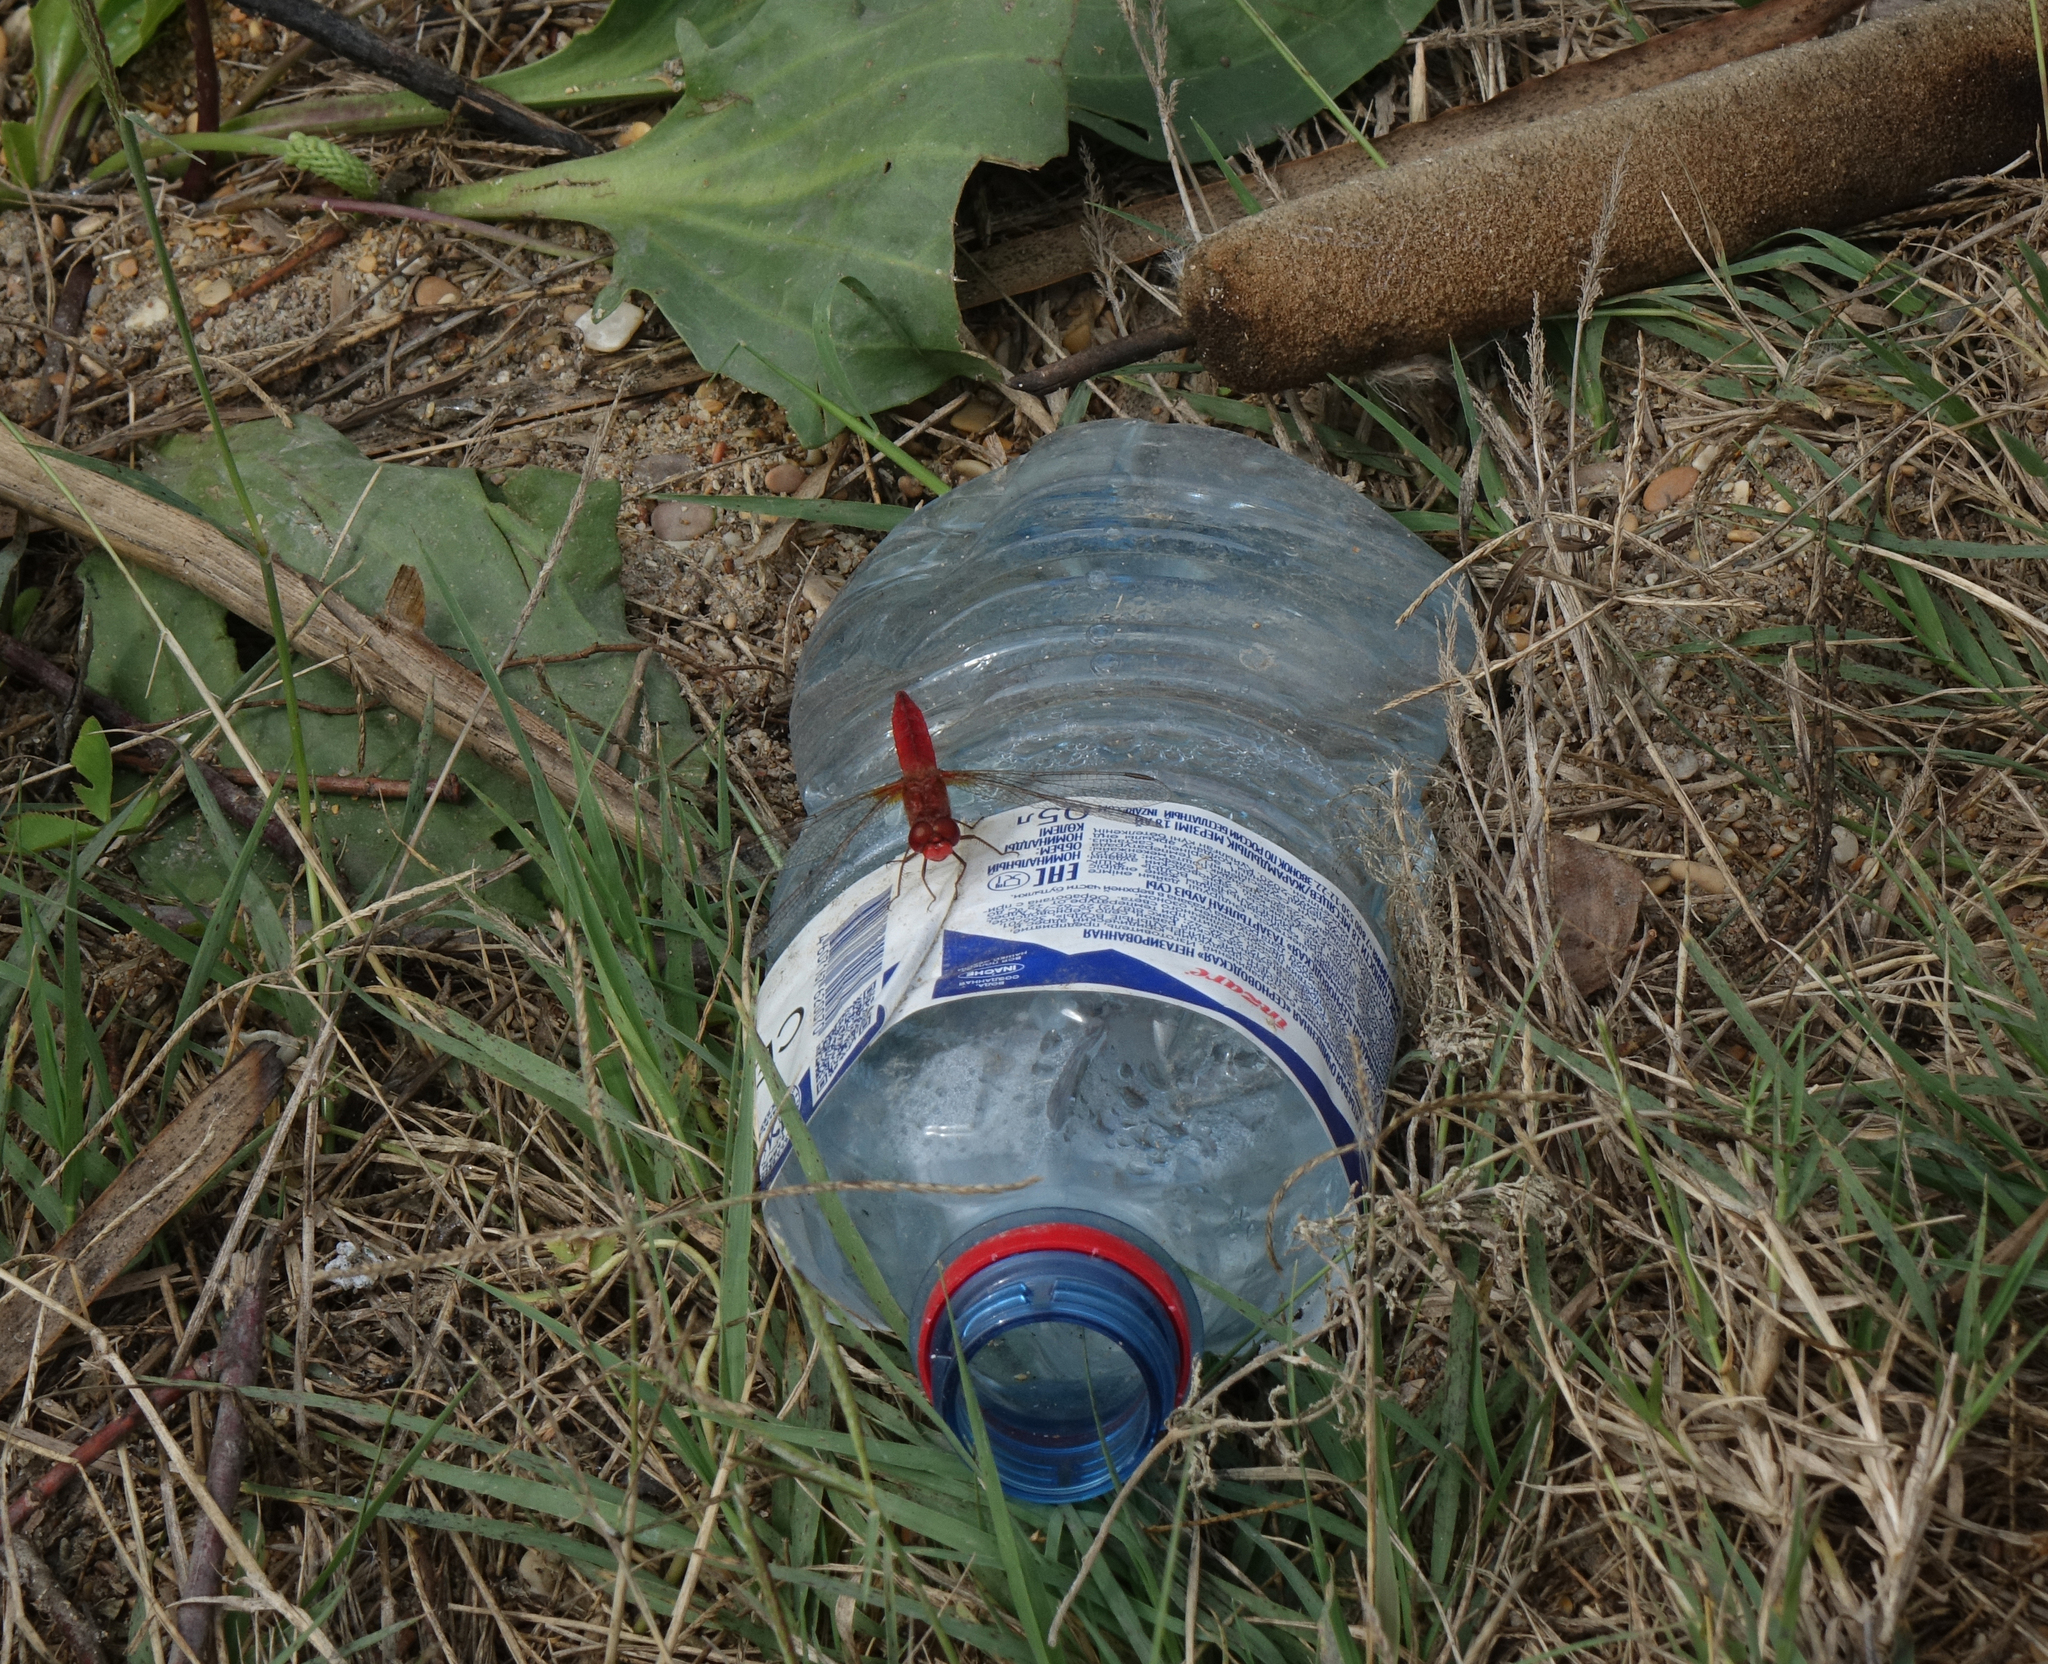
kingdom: Animalia
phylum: Arthropoda
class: Insecta
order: Odonata
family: Libellulidae
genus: Crocothemis
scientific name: Crocothemis erythraea
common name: Scarlet dragonfly
